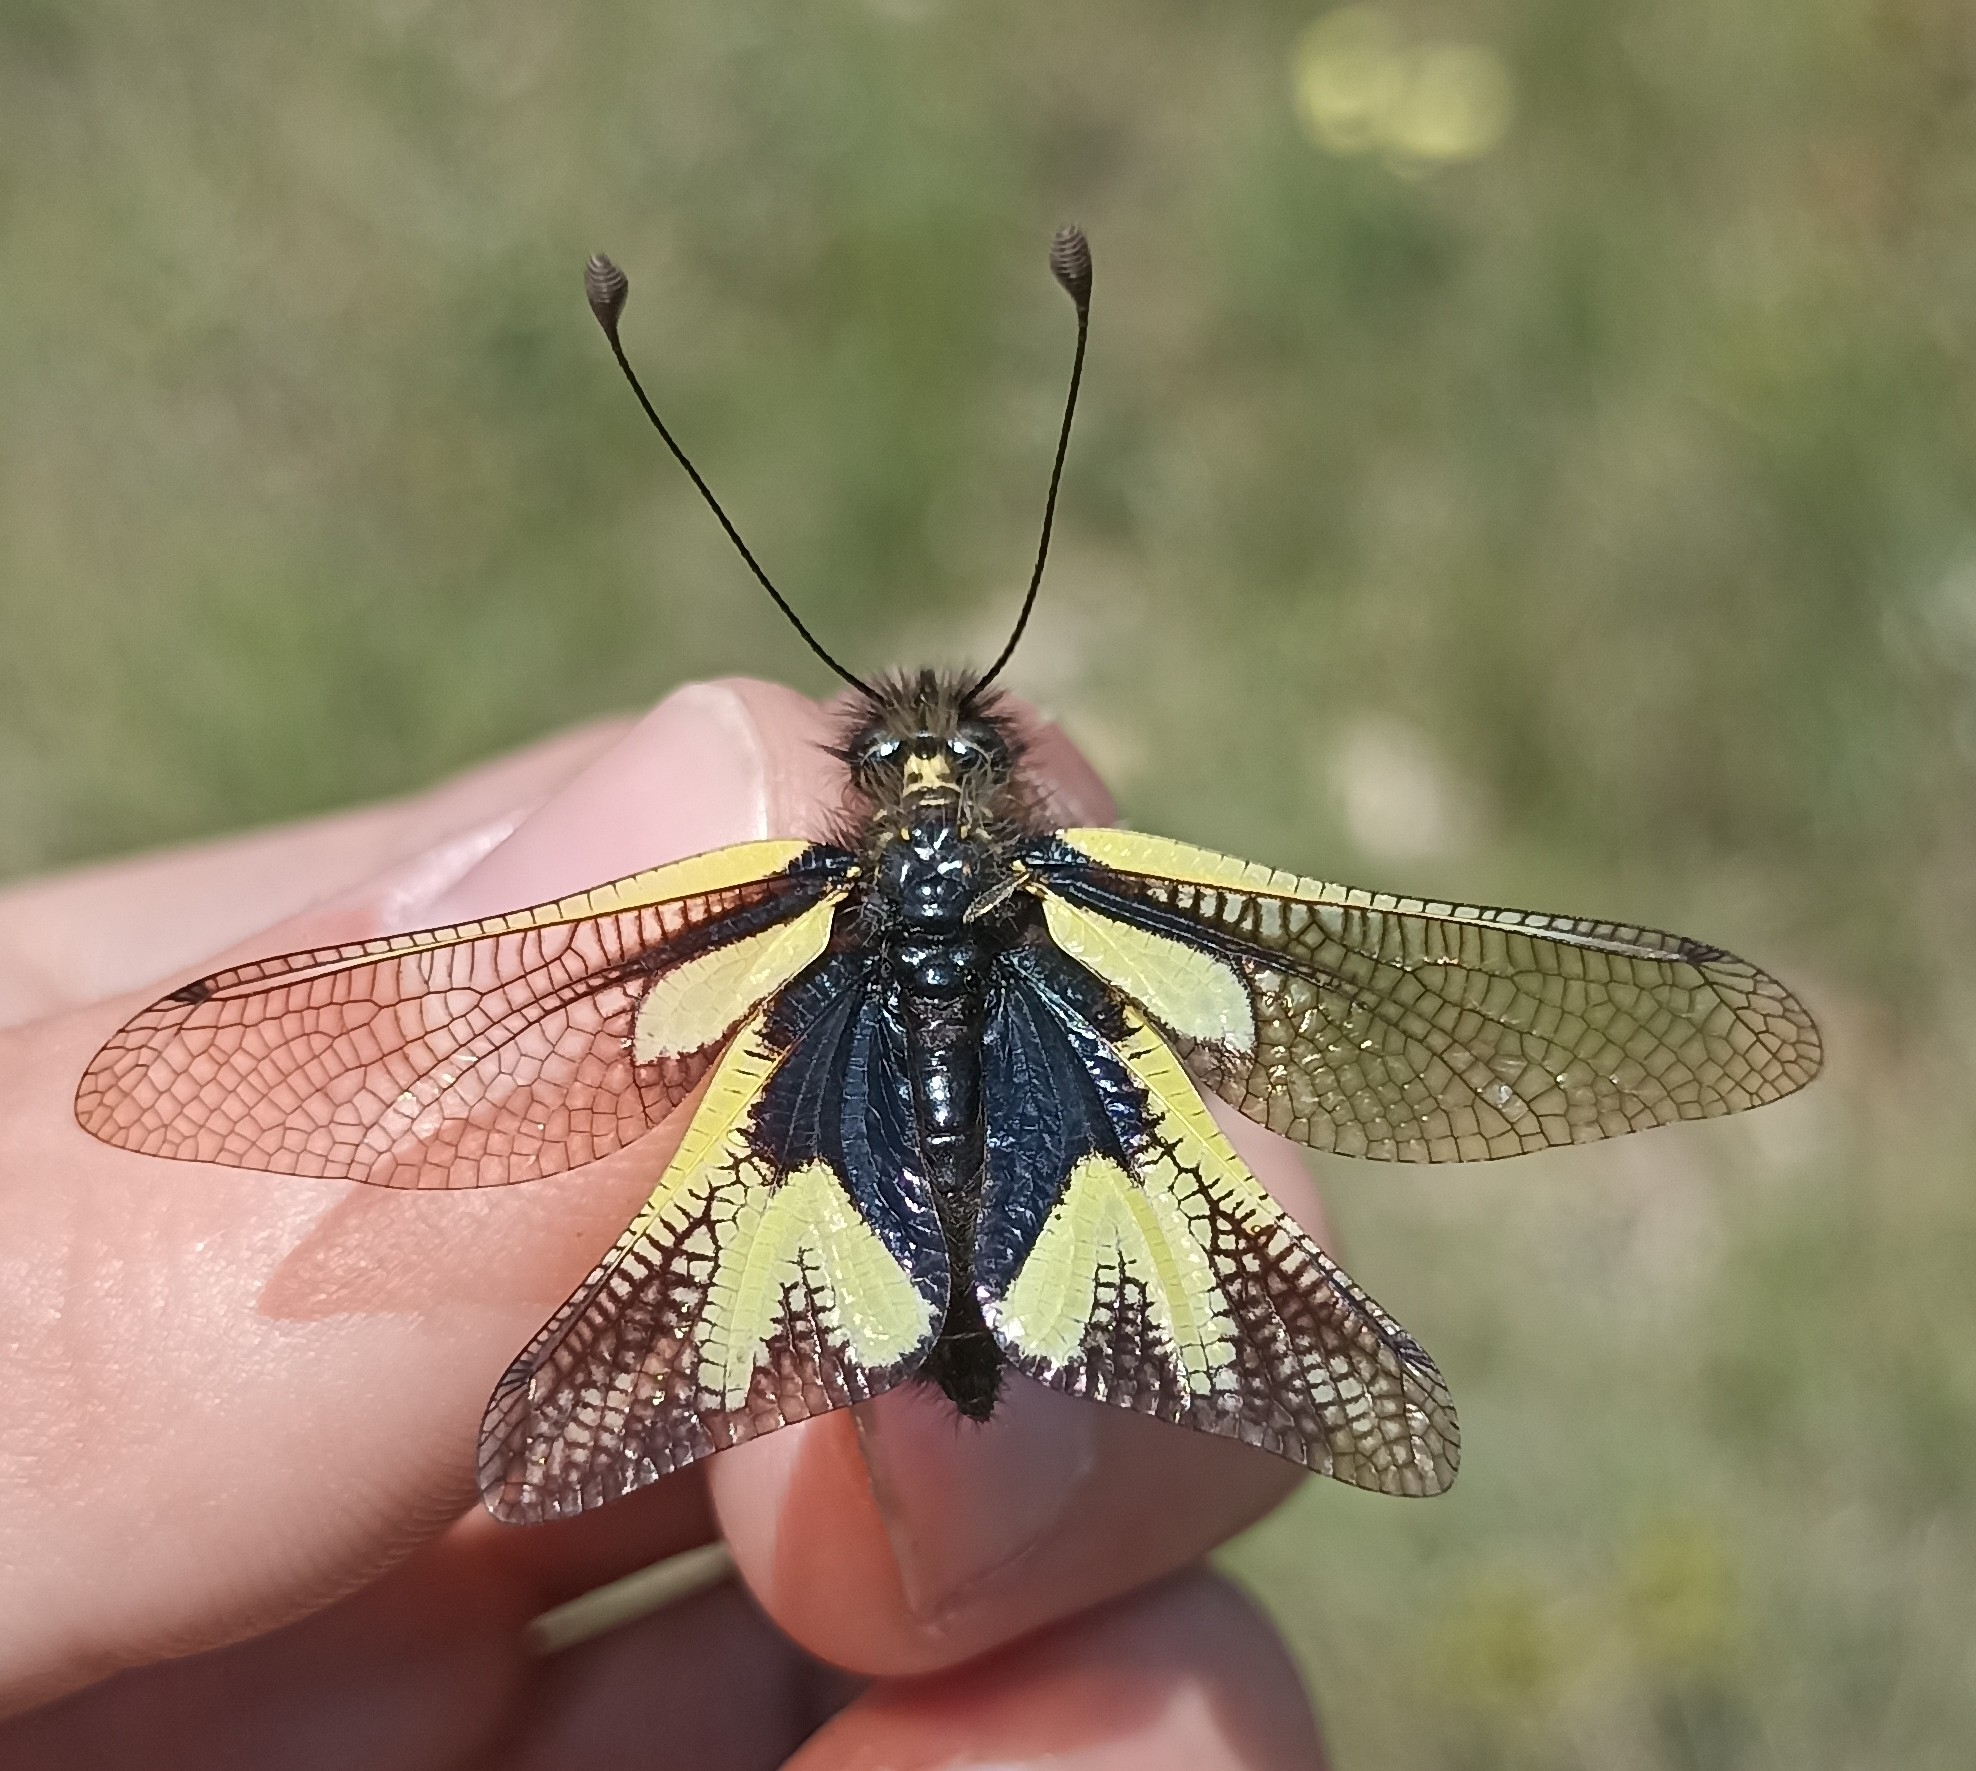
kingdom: Animalia
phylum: Arthropoda
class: Insecta
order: Neuroptera
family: Ascalaphidae
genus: Libelloides
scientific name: Libelloides coccajus
